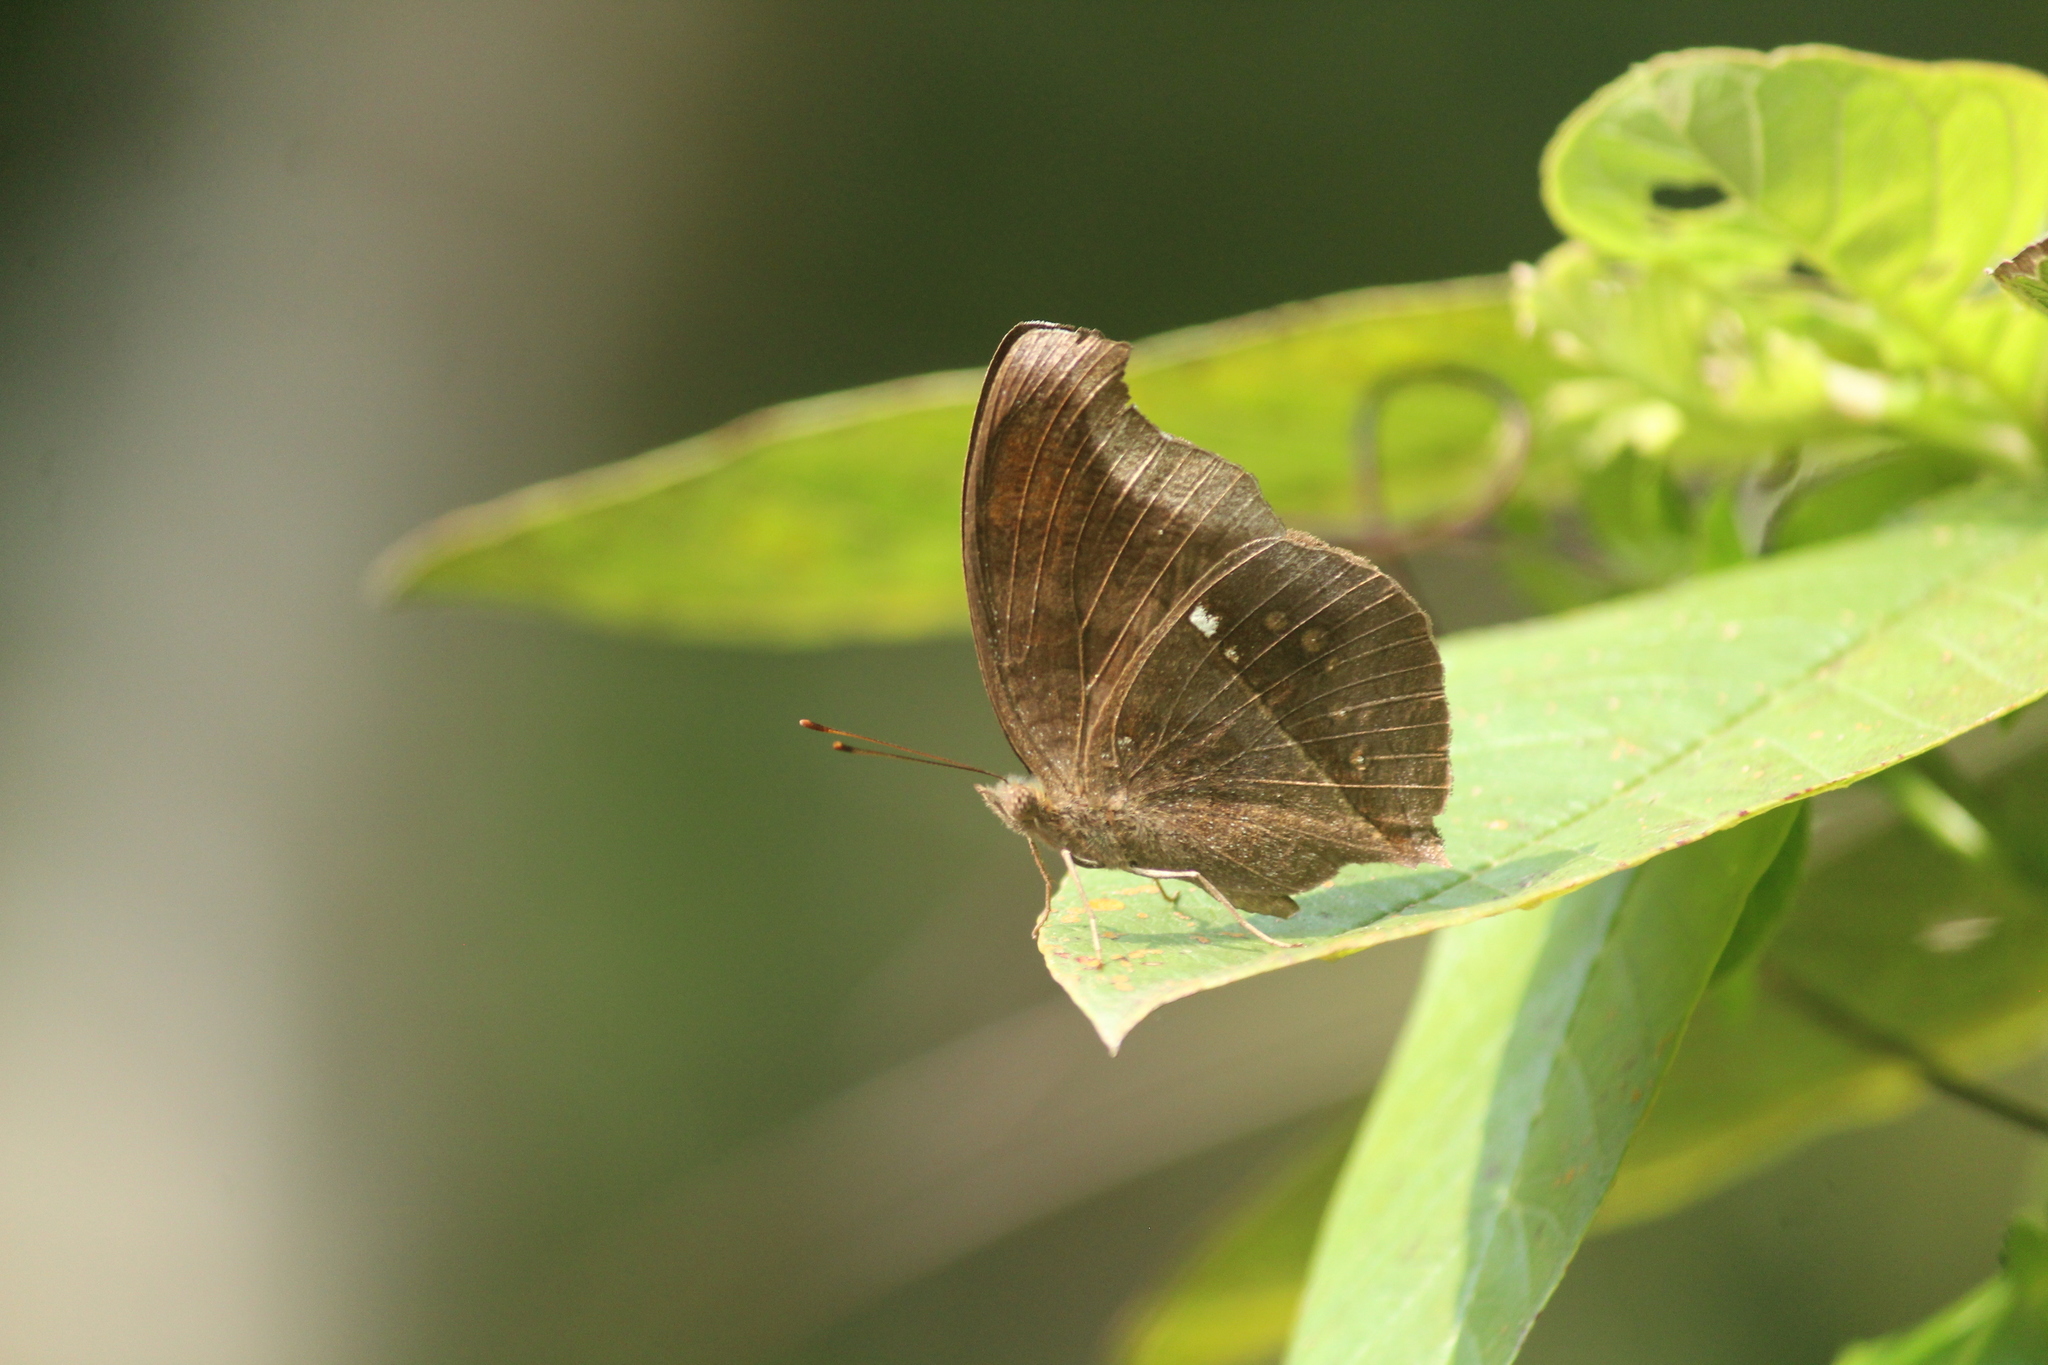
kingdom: Animalia
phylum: Arthropoda
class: Insecta
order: Lepidoptera
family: Nymphalidae
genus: Junonia
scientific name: Junonia iphita
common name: Chocolate pansy
